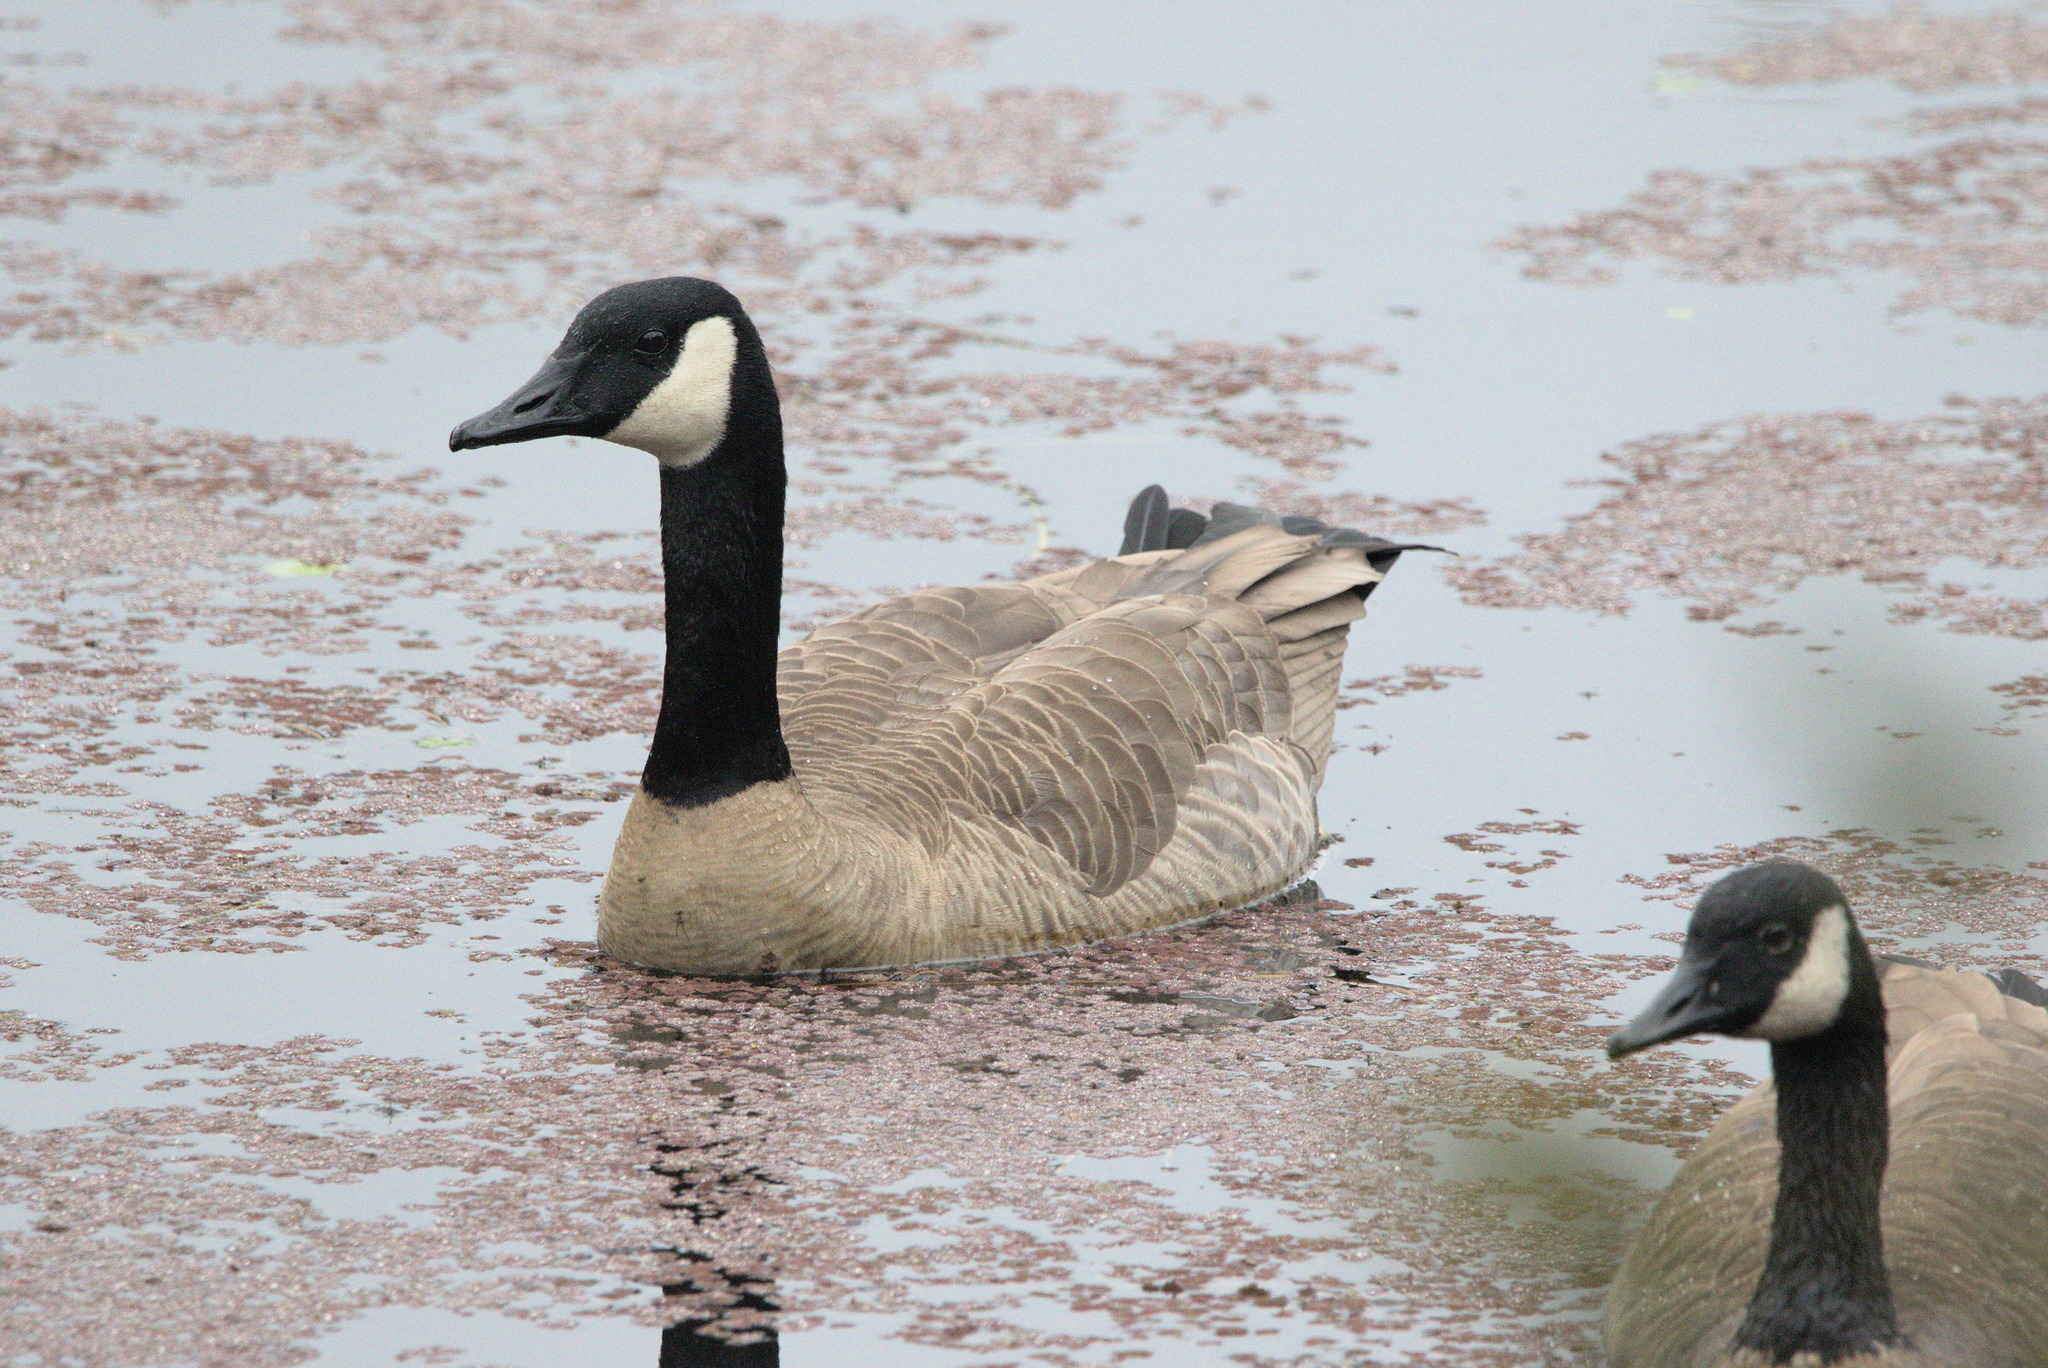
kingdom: Animalia
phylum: Chordata
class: Aves
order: Anseriformes
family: Anatidae
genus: Branta
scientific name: Branta canadensis
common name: Canada goose
